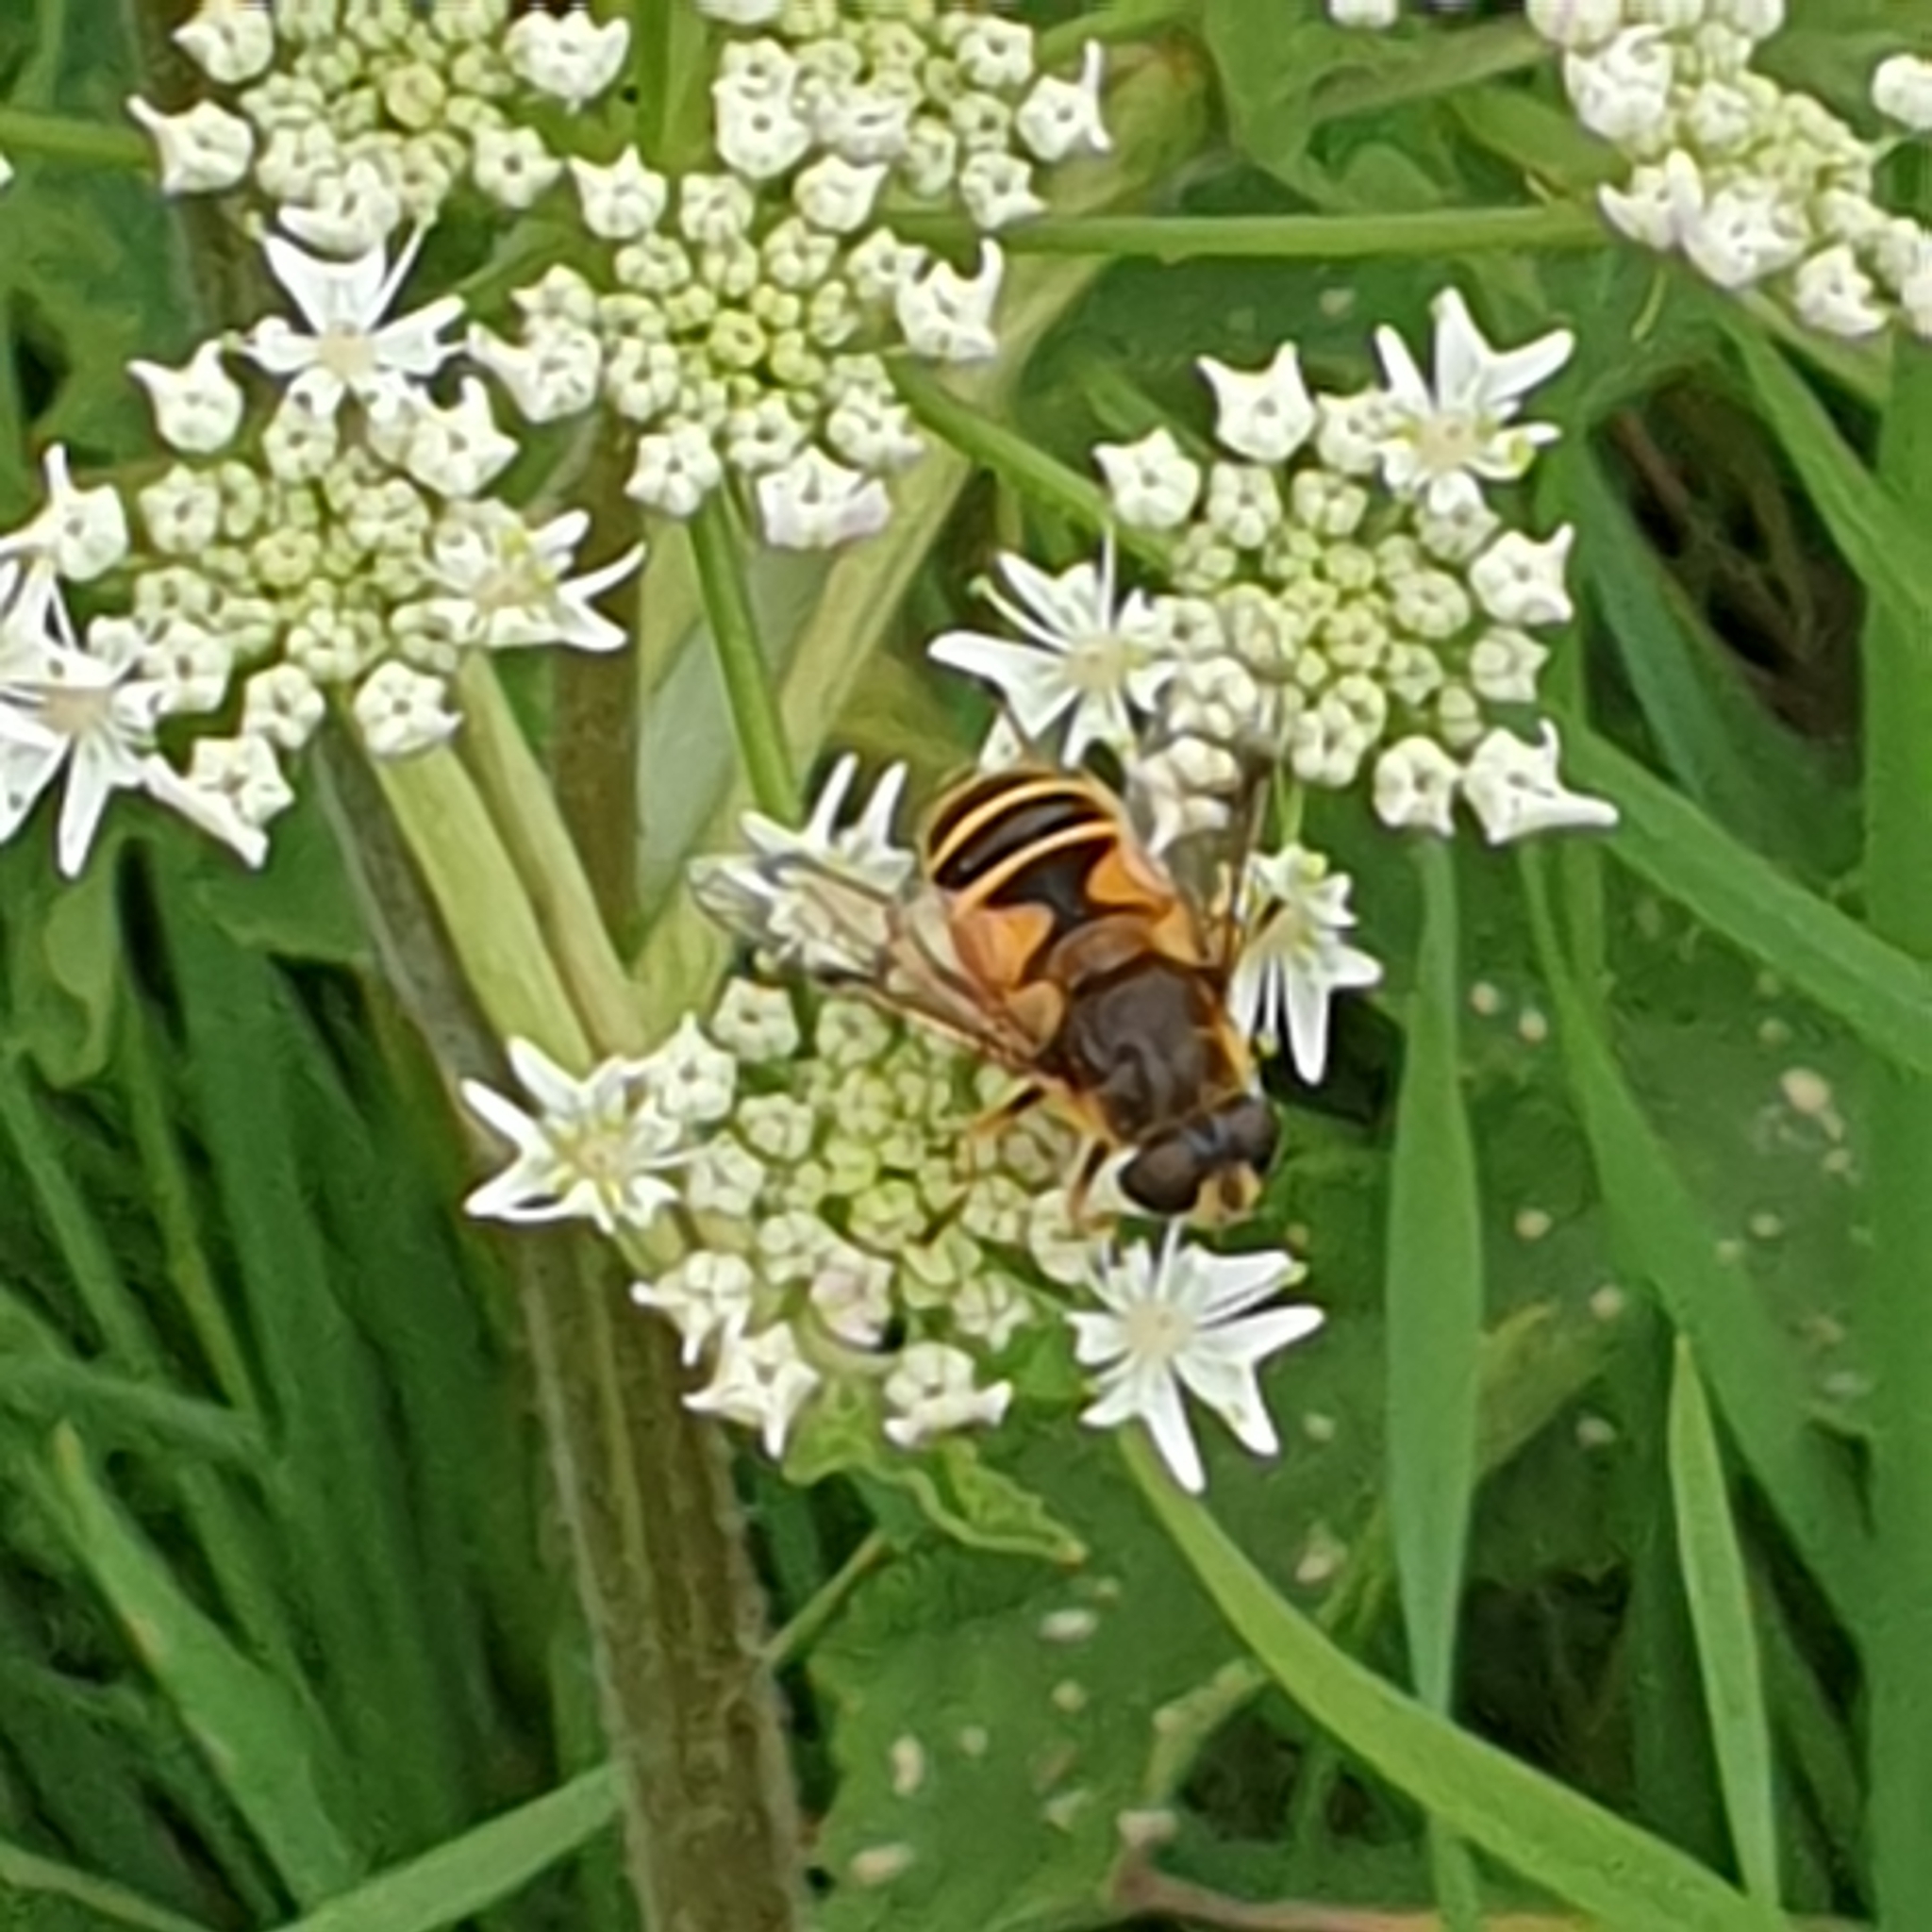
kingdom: Animalia
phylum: Arthropoda
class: Insecta
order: Diptera
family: Syrphidae
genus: Cheilosia
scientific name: Cheilosia morio
